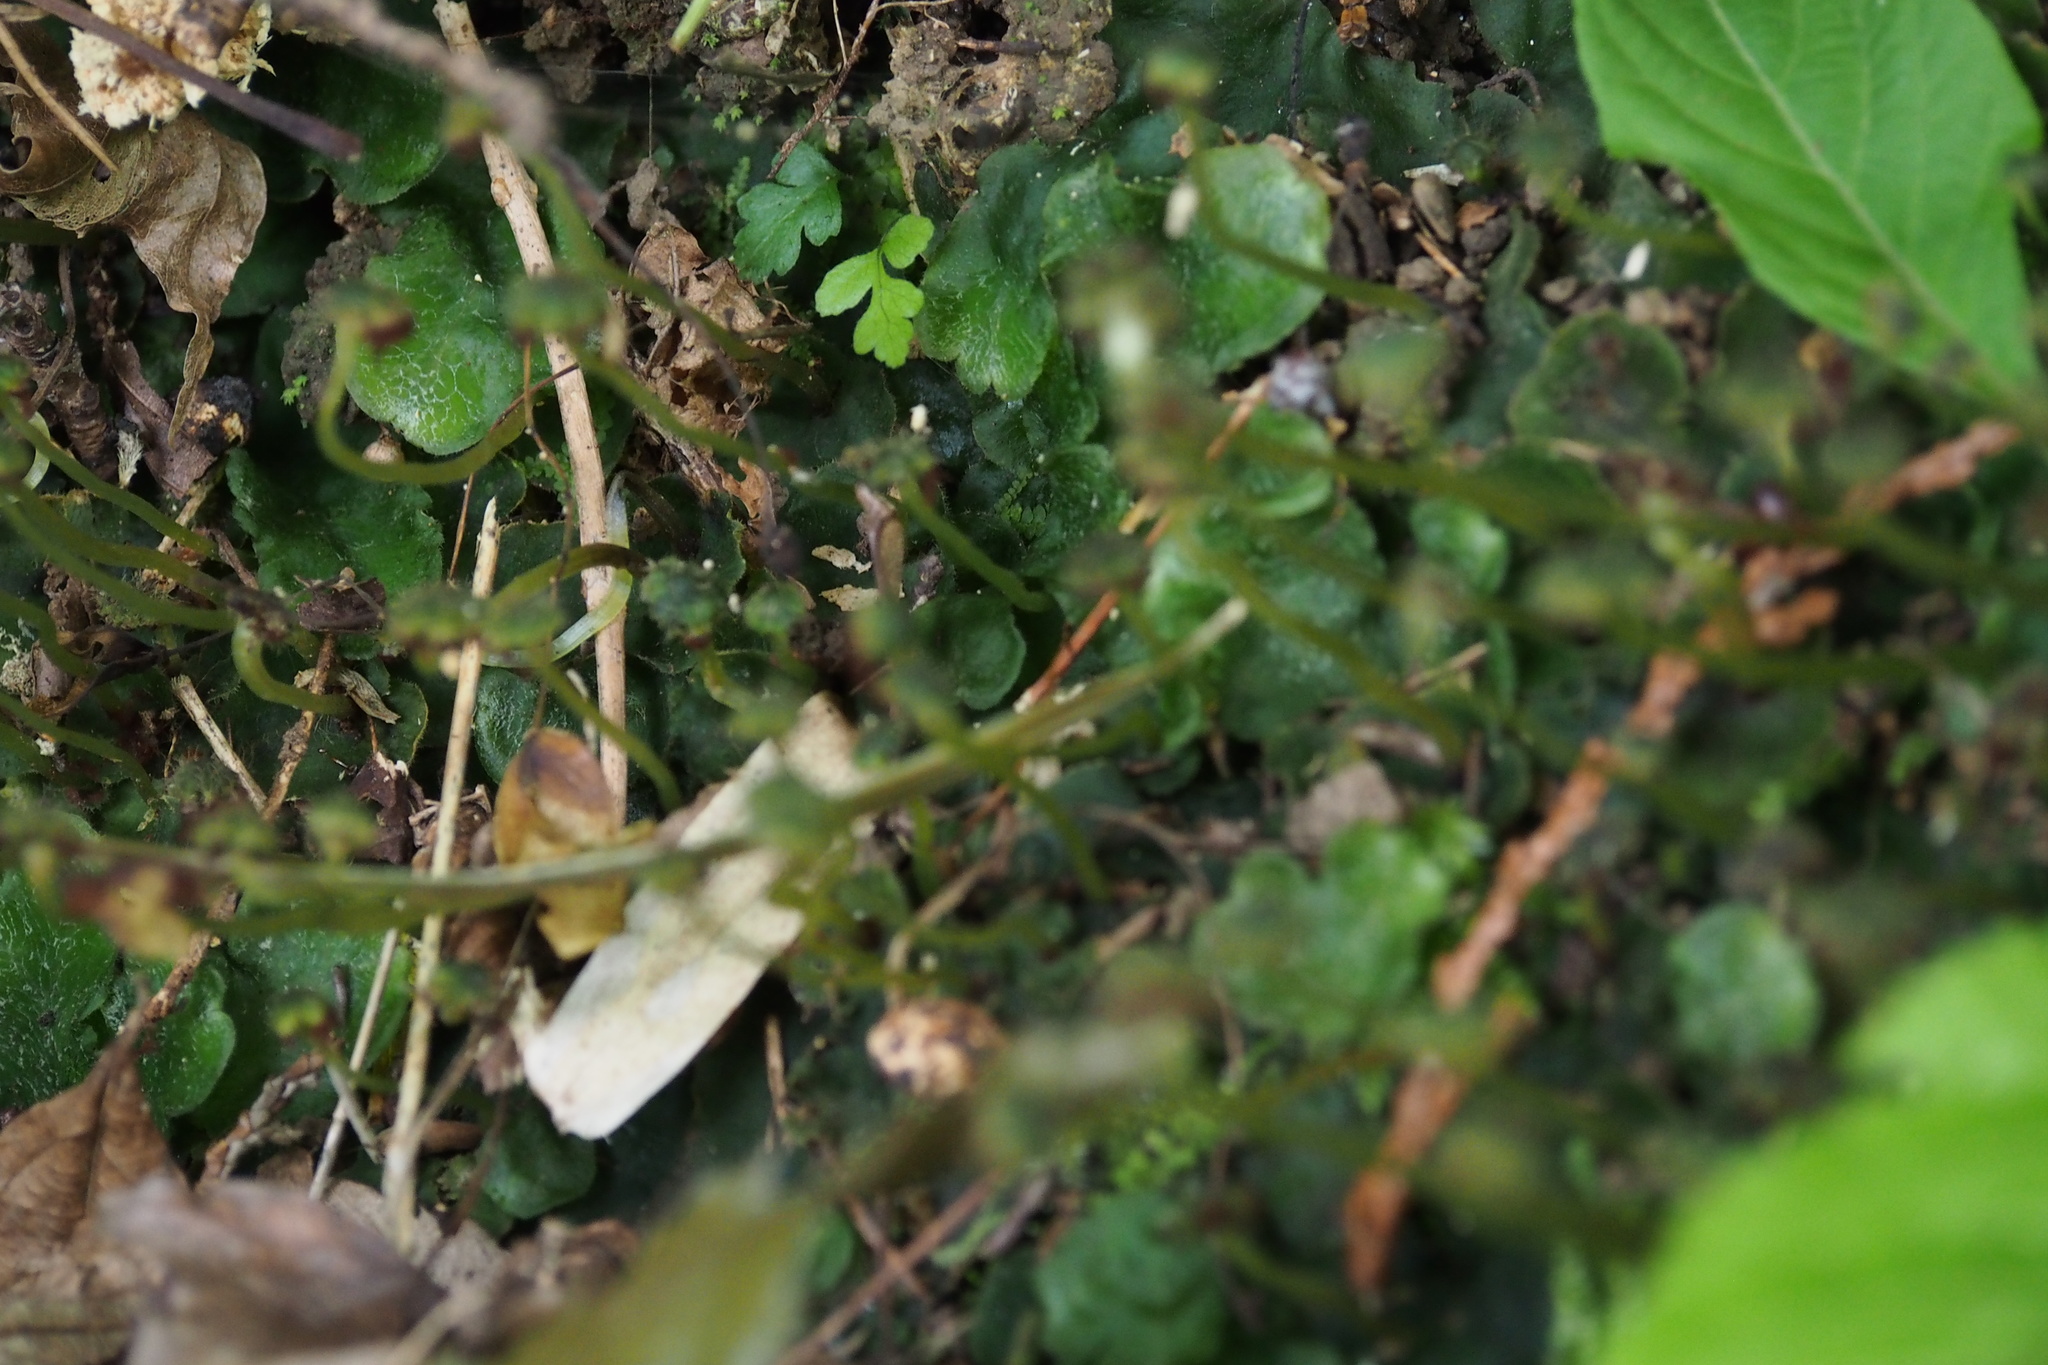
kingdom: Plantae
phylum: Marchantiophyta
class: Marchantiopsida
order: Marchantiales
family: Dumortieraceae
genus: Dumortiera
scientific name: Dumortiera hirsuta
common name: Dumortier's liverwort
